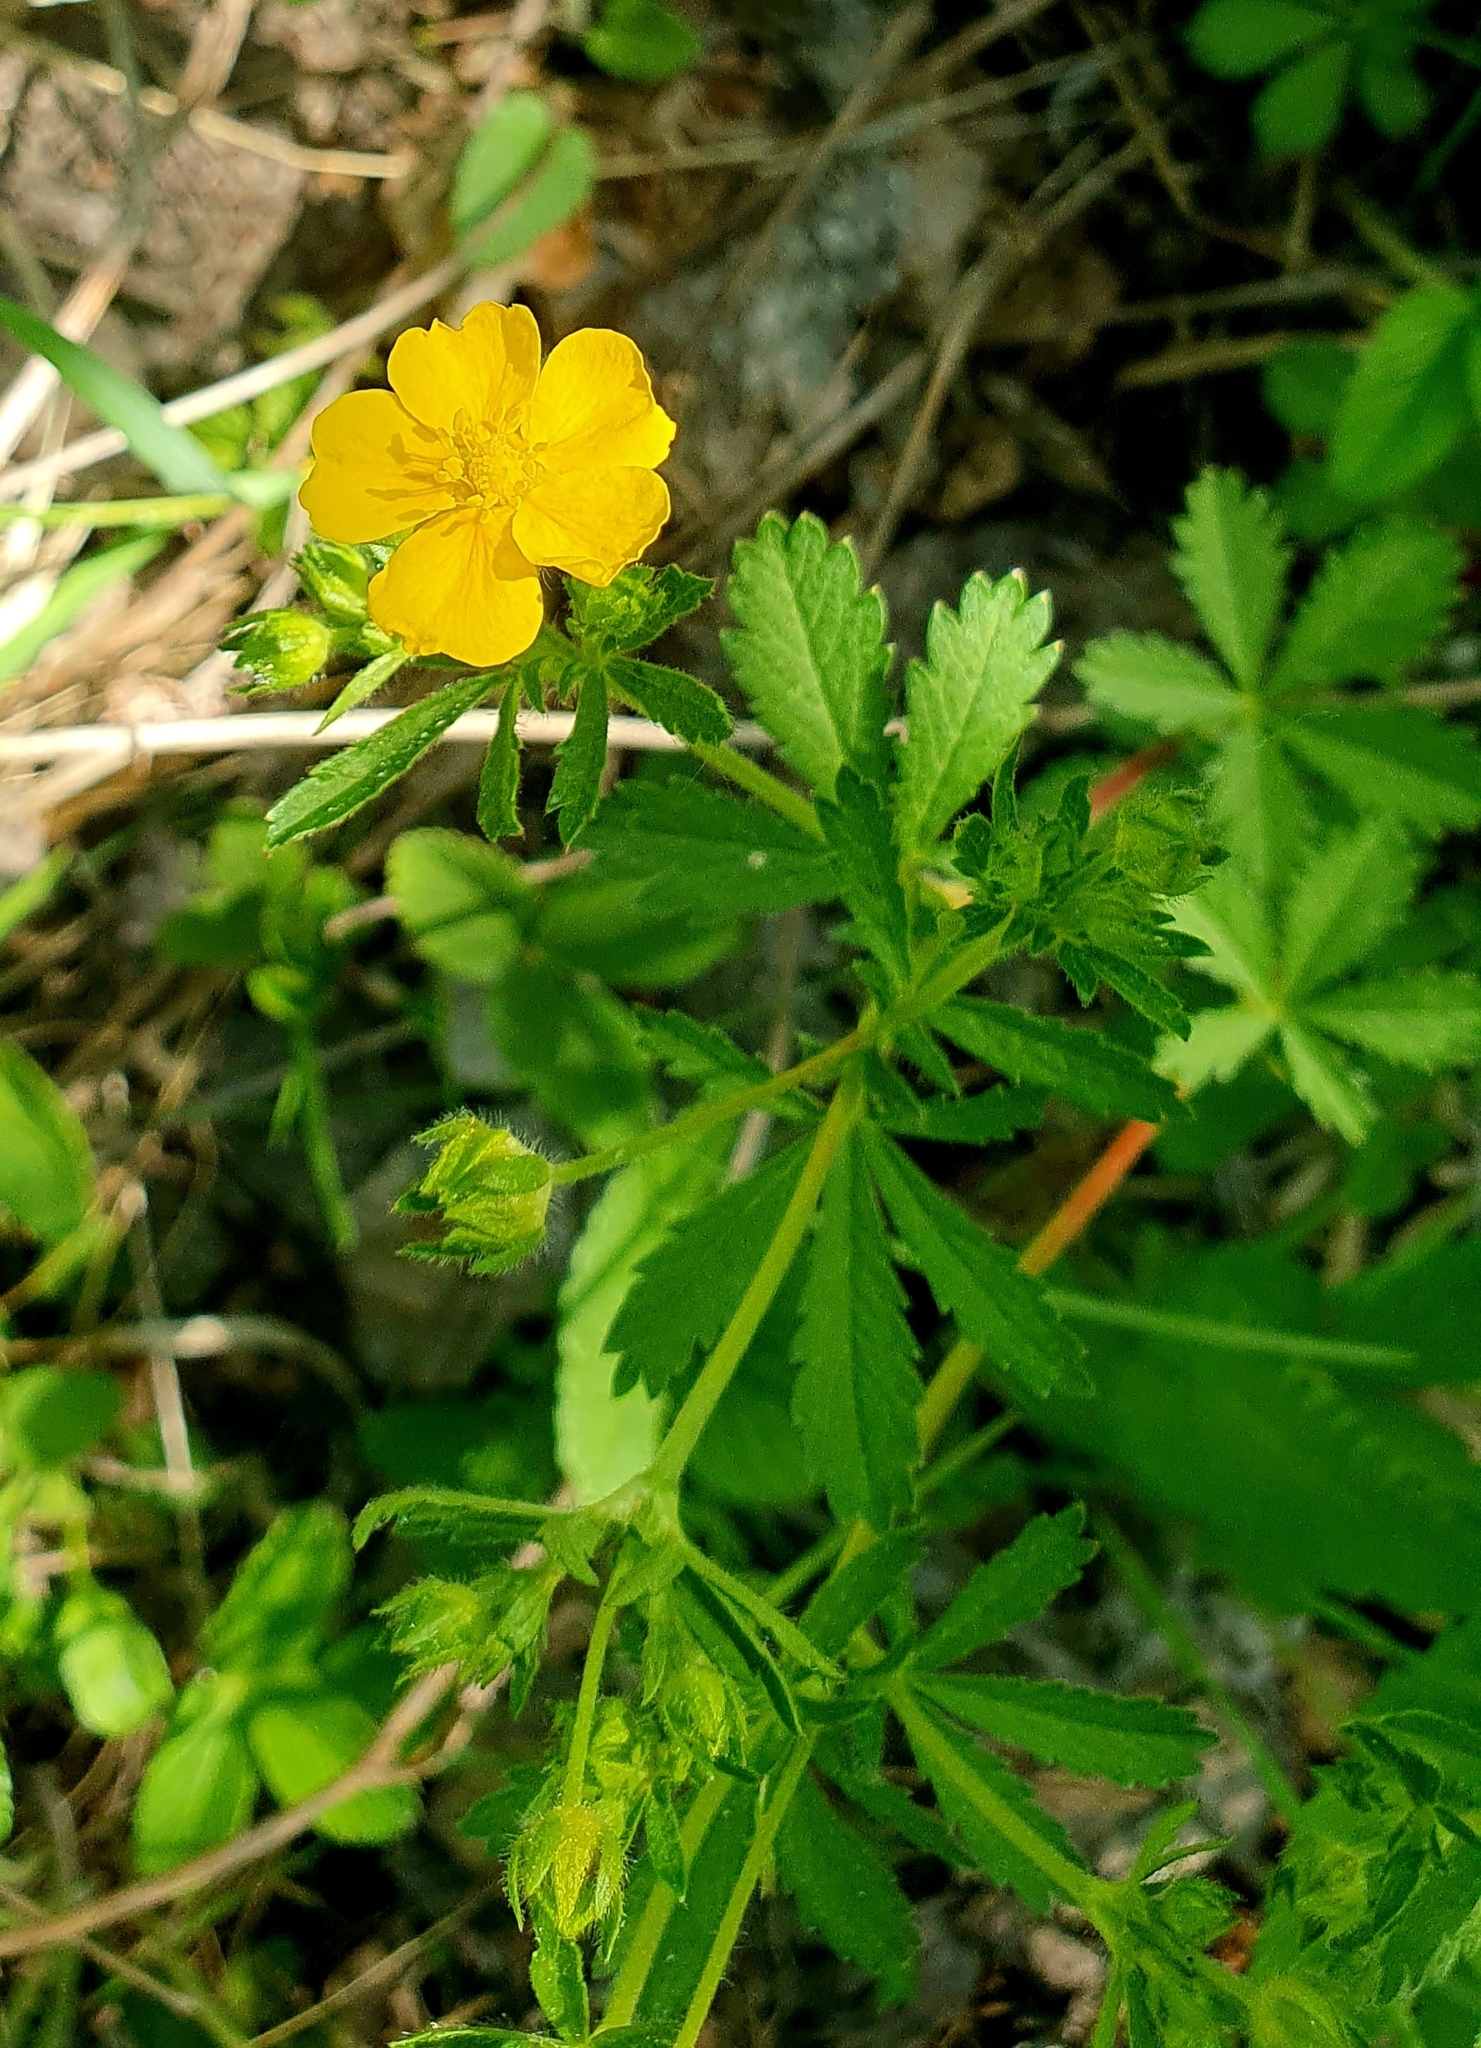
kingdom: Plantae
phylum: Tracheophyta
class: Magnoliopsida
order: Rosales
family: Rosaceae
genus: Potentilla
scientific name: Potentilla thuringiaca
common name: European cinquefoil
